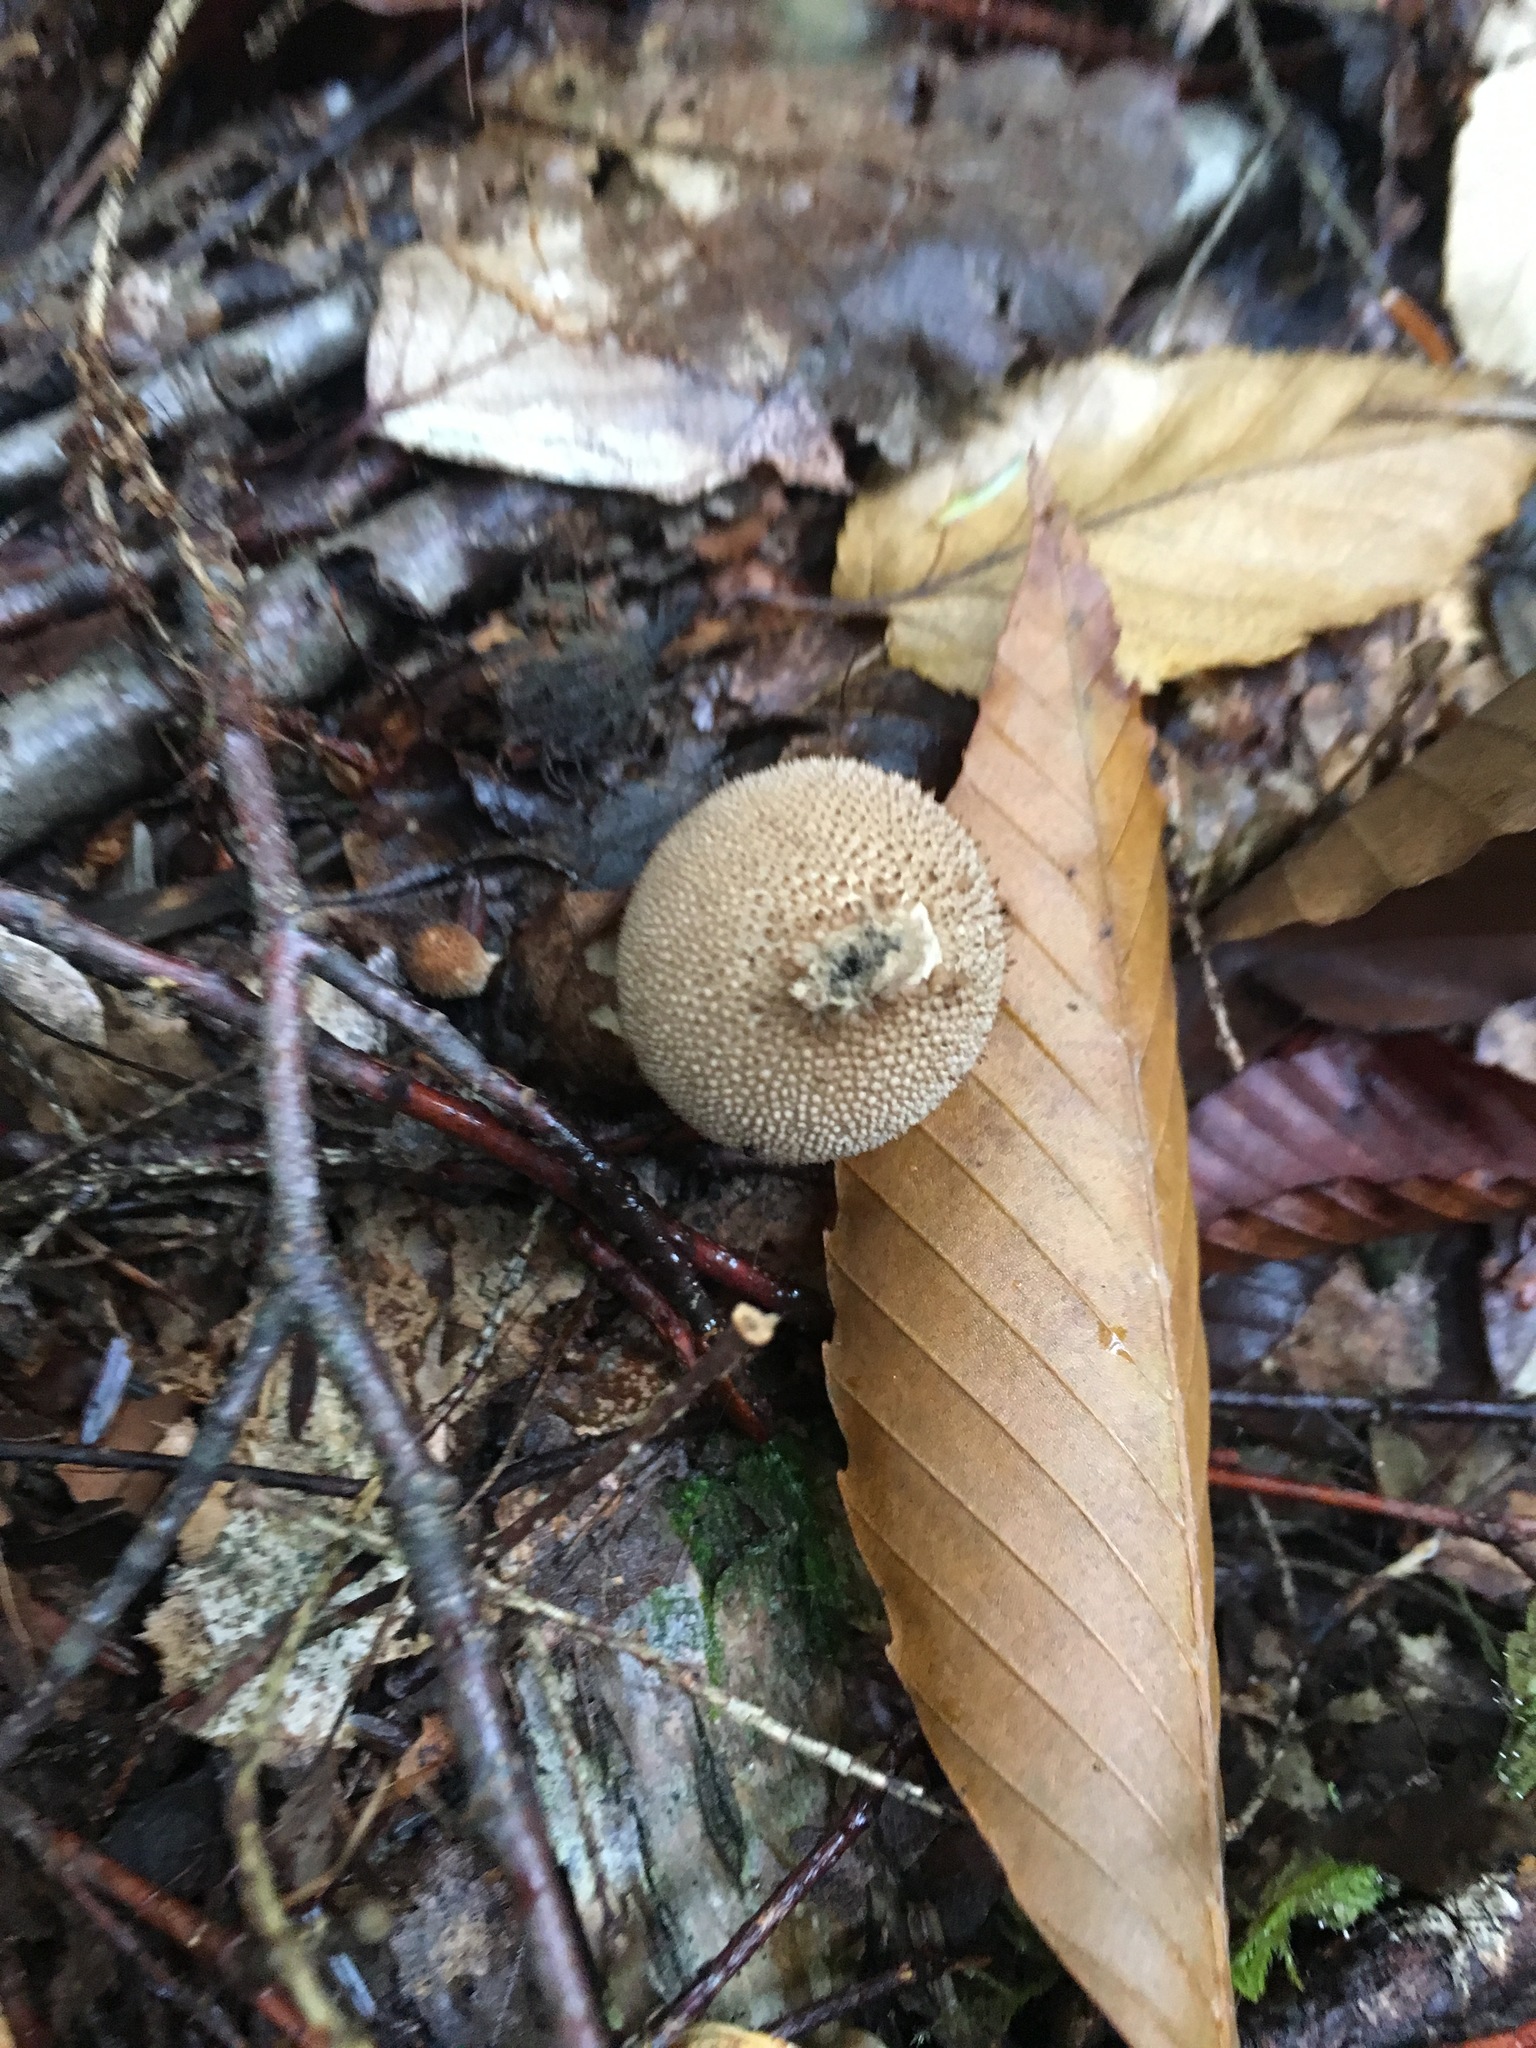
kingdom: Fungi
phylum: Basidiomycota
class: Agaricomycetes
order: Agaricales
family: Lycoperdaceae
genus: Lycoperdon
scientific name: Lycoperdon perlatum
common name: Common puffball
